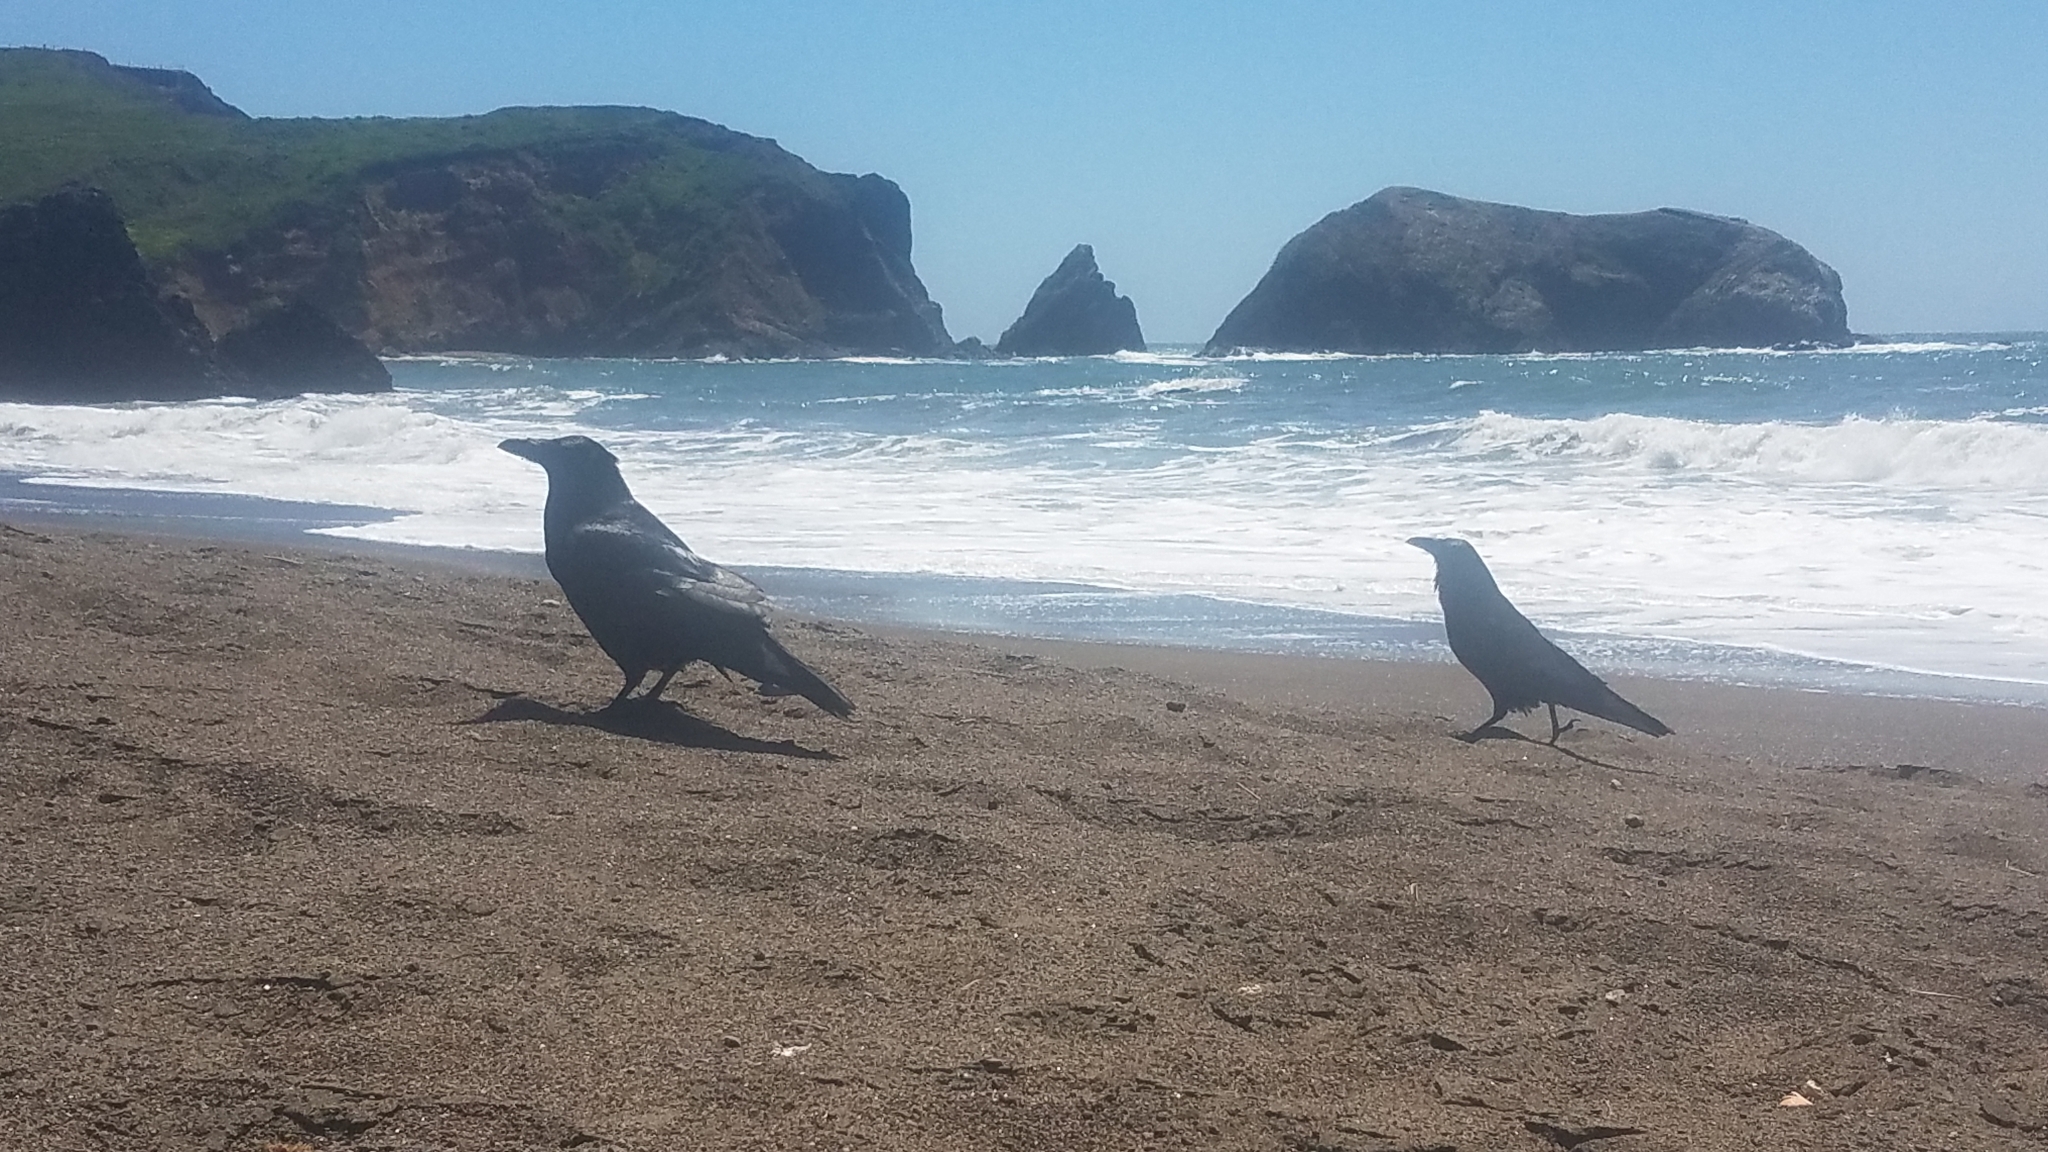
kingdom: Animalia
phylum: Chordata
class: Aves
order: Passeriformes
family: Corvidae
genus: Corvus
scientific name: Corvus corax
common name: Common raven
